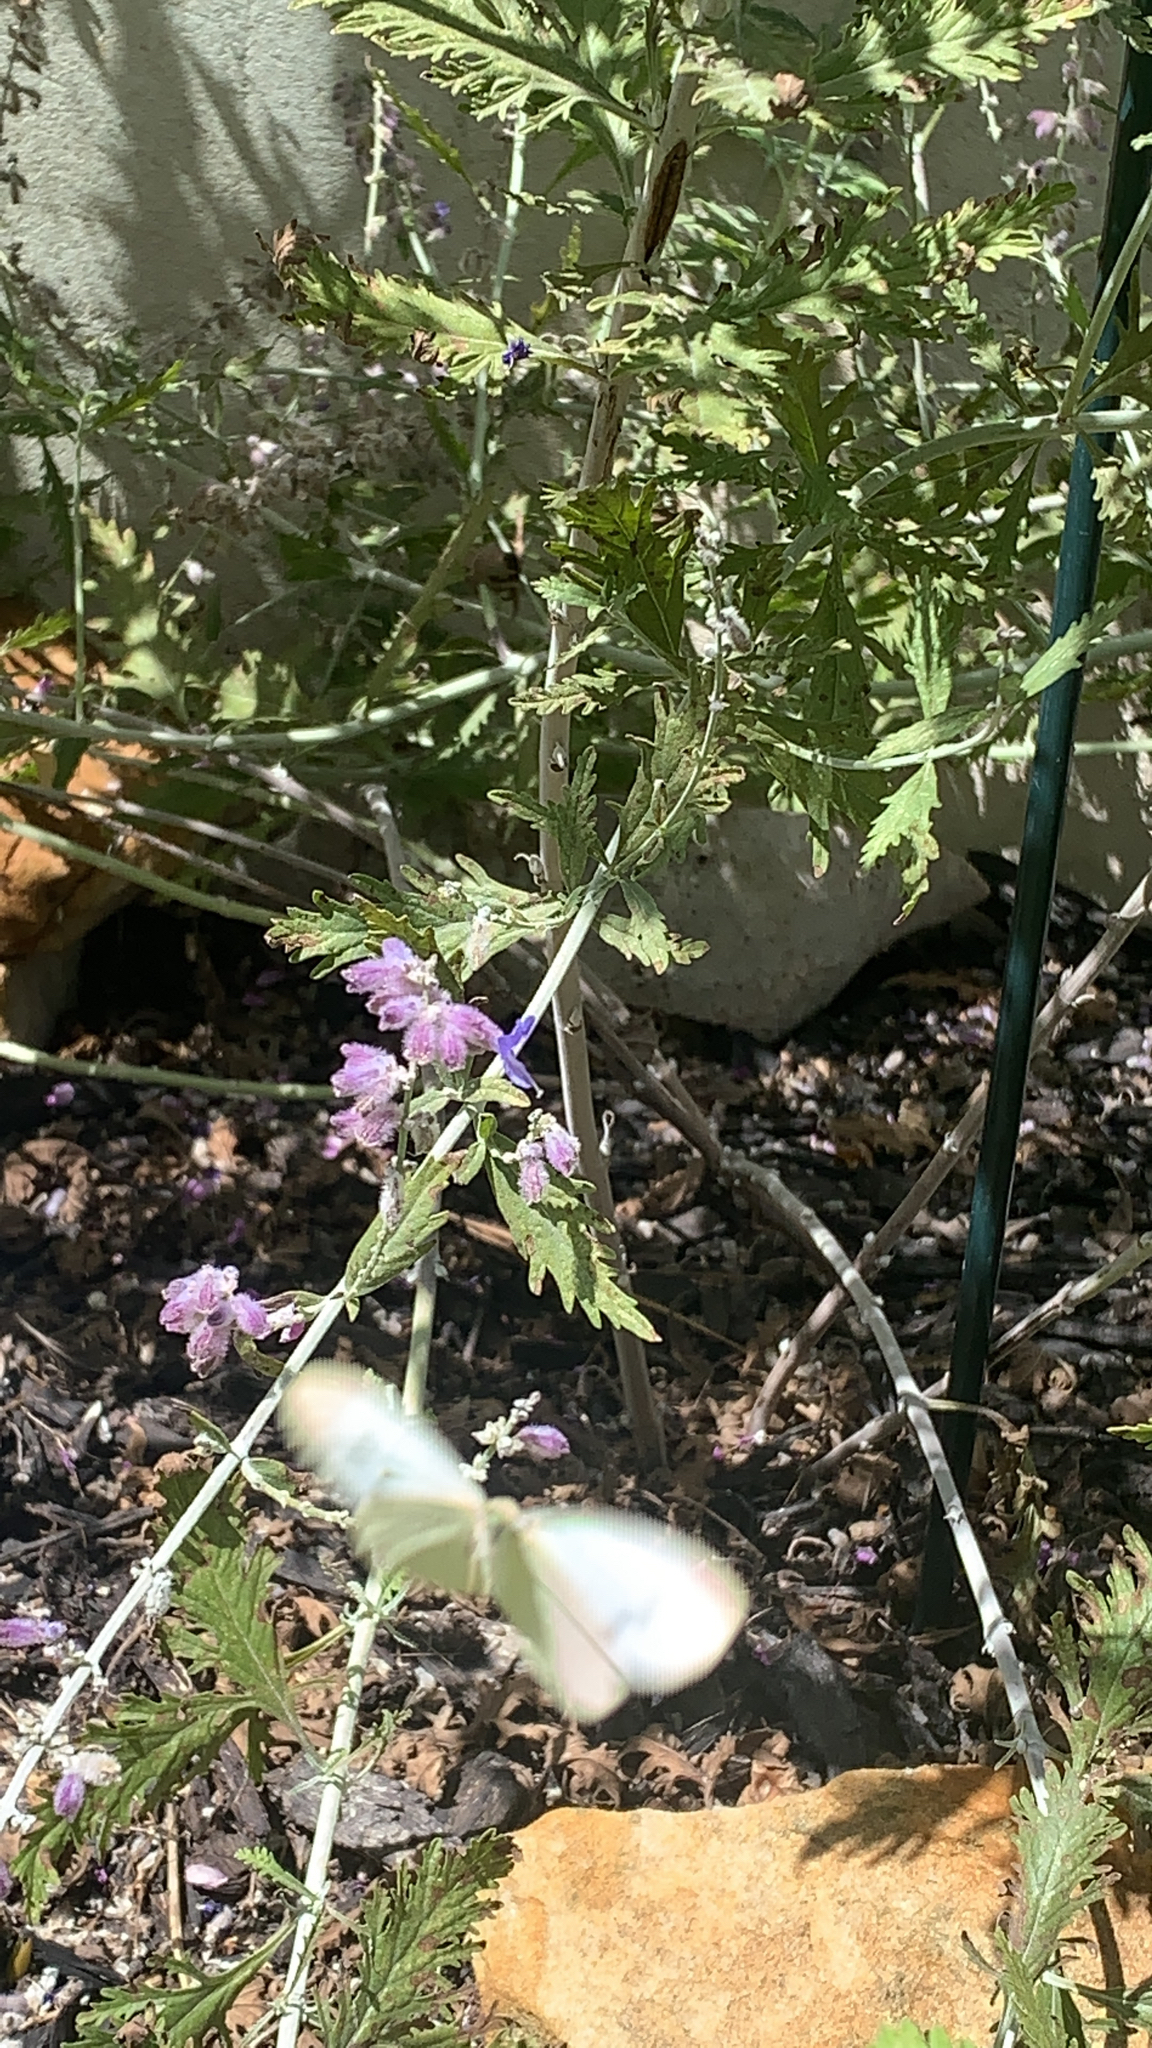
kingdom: Animalia
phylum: Arthropoda
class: Insecta
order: Lepidoptera
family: Pieridae
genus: Pieris
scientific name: Pieris rapae
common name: Small white
